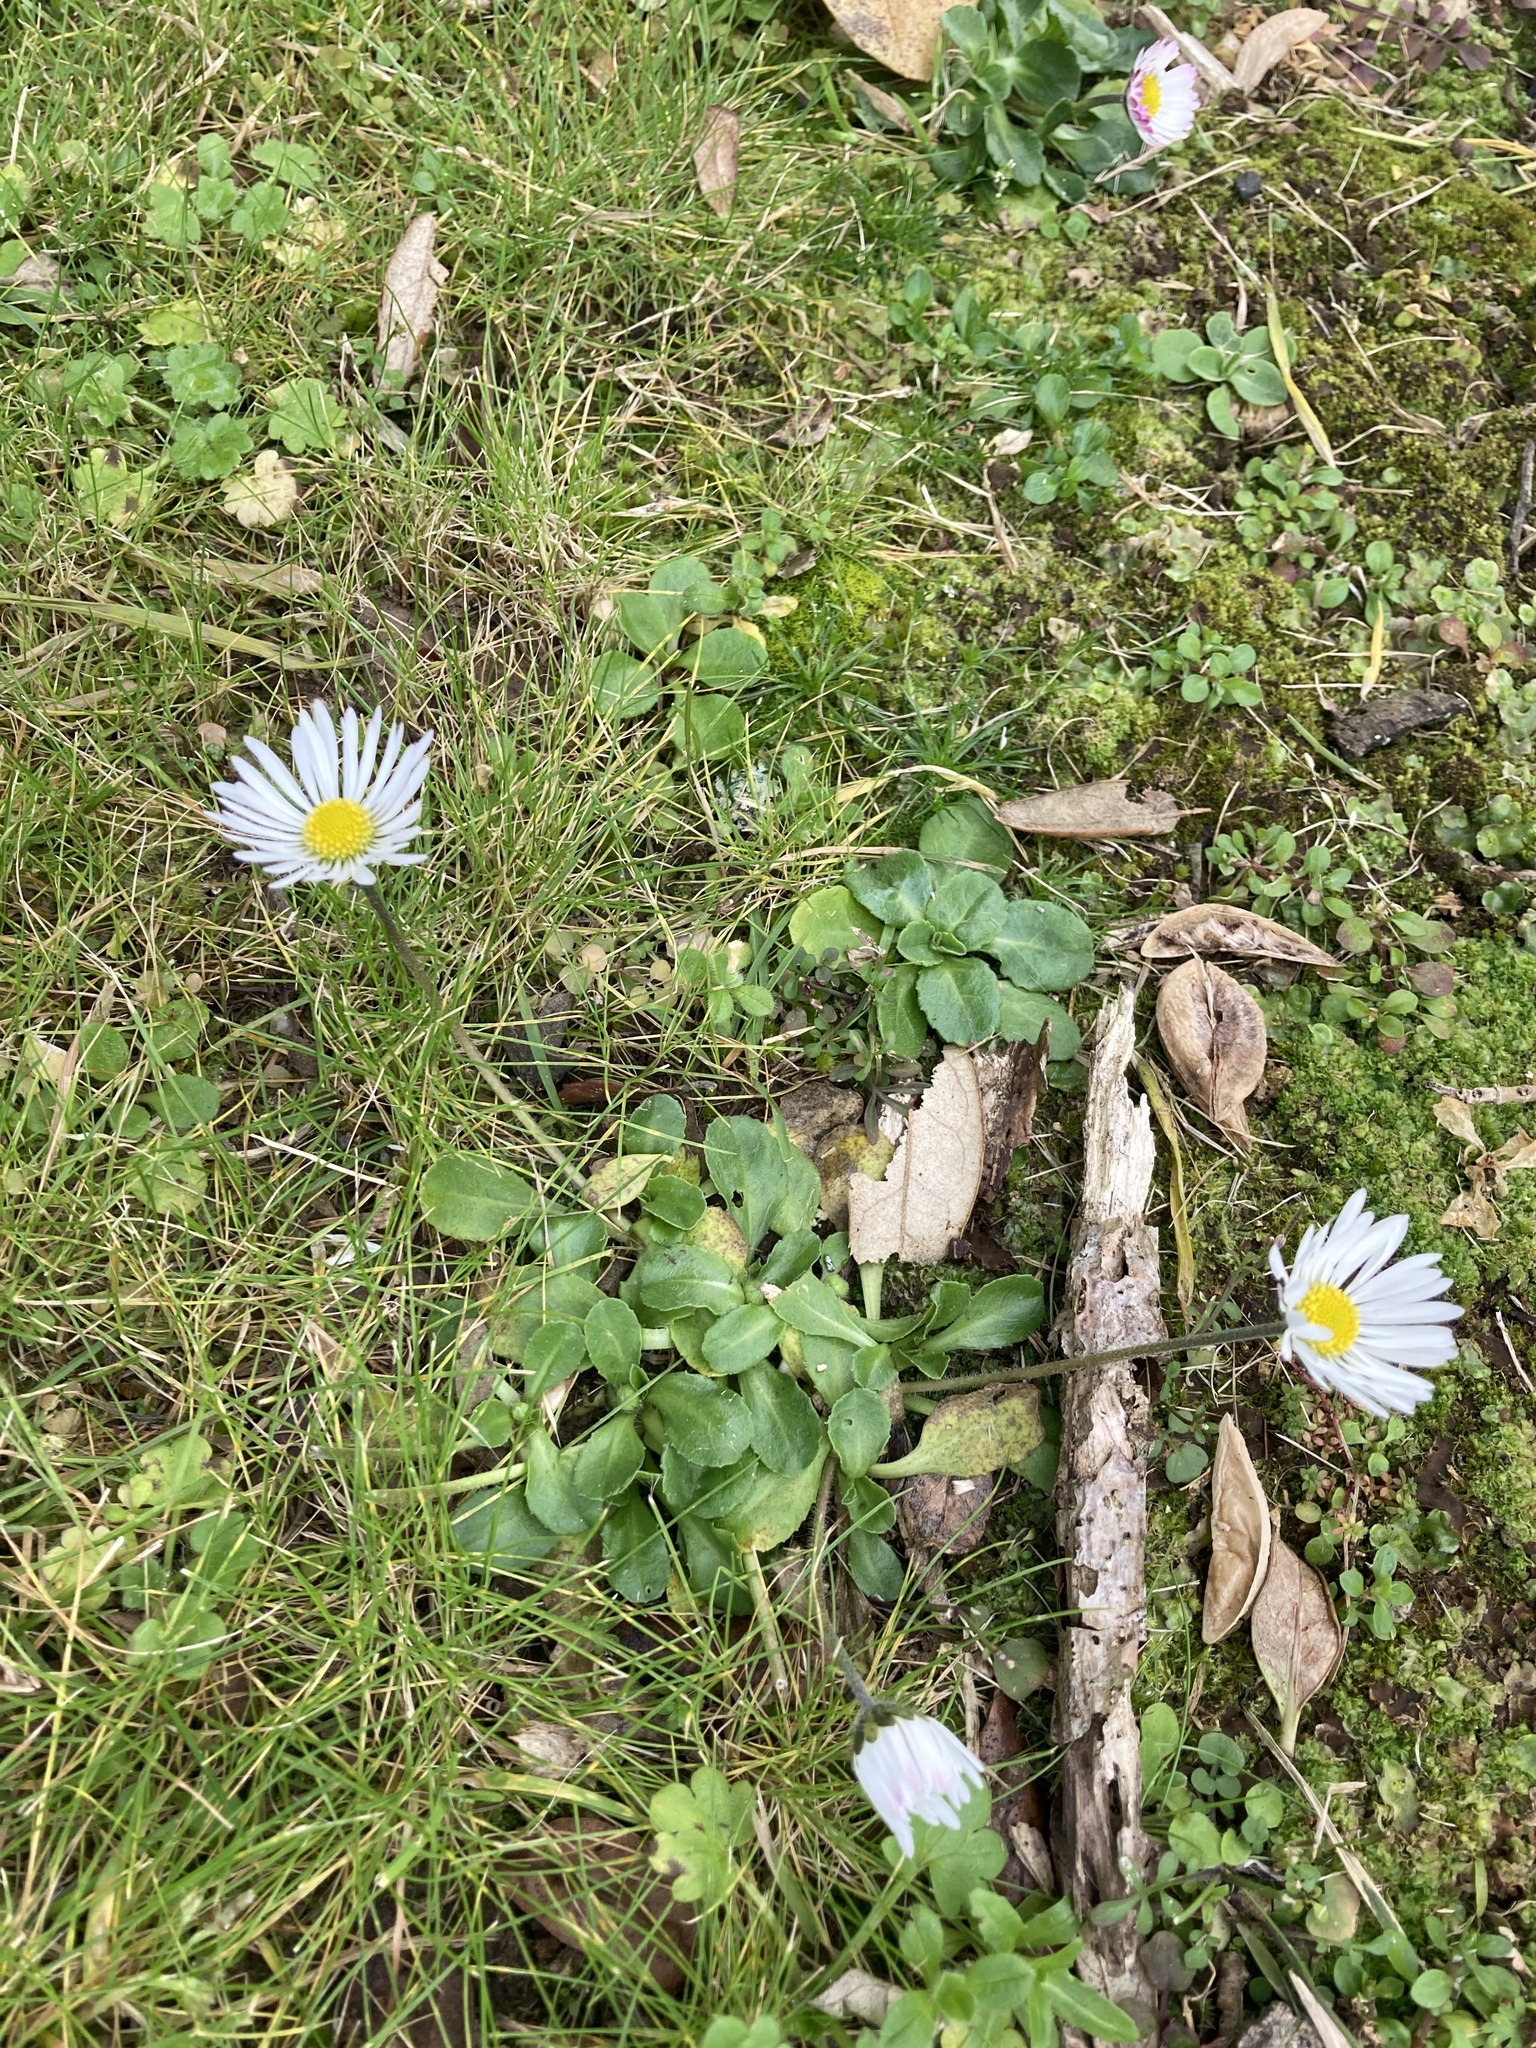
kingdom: Plantae
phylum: Tracheophyta
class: Magnoliopsida
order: Asterales
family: Asteraceae
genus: Bellis
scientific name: Bellis perennis
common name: Lawndaisy
